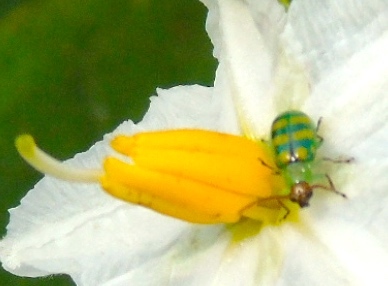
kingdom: Animalia
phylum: Arthropoda
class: Insecta
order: Coleoptera
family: Chrysomelidae
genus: Diabrotica
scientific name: Diabrotica balteata
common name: Leaf beetle
